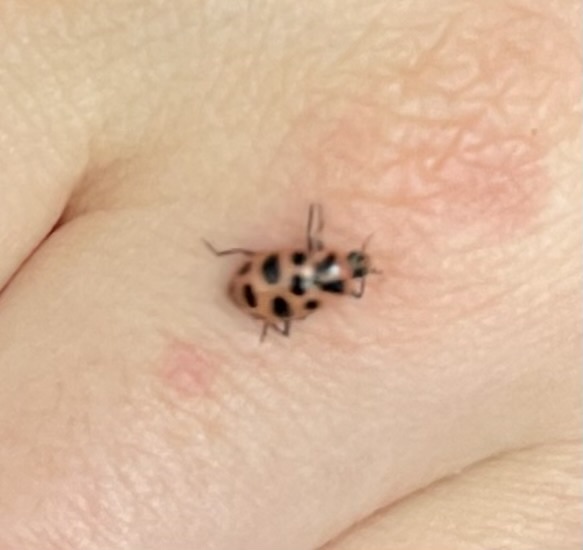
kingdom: Animalia
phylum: Arthropoda
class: Insecta
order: Coleoptera
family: Coccinellidae
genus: Coleomegilla
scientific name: Coleomegilla maculata
